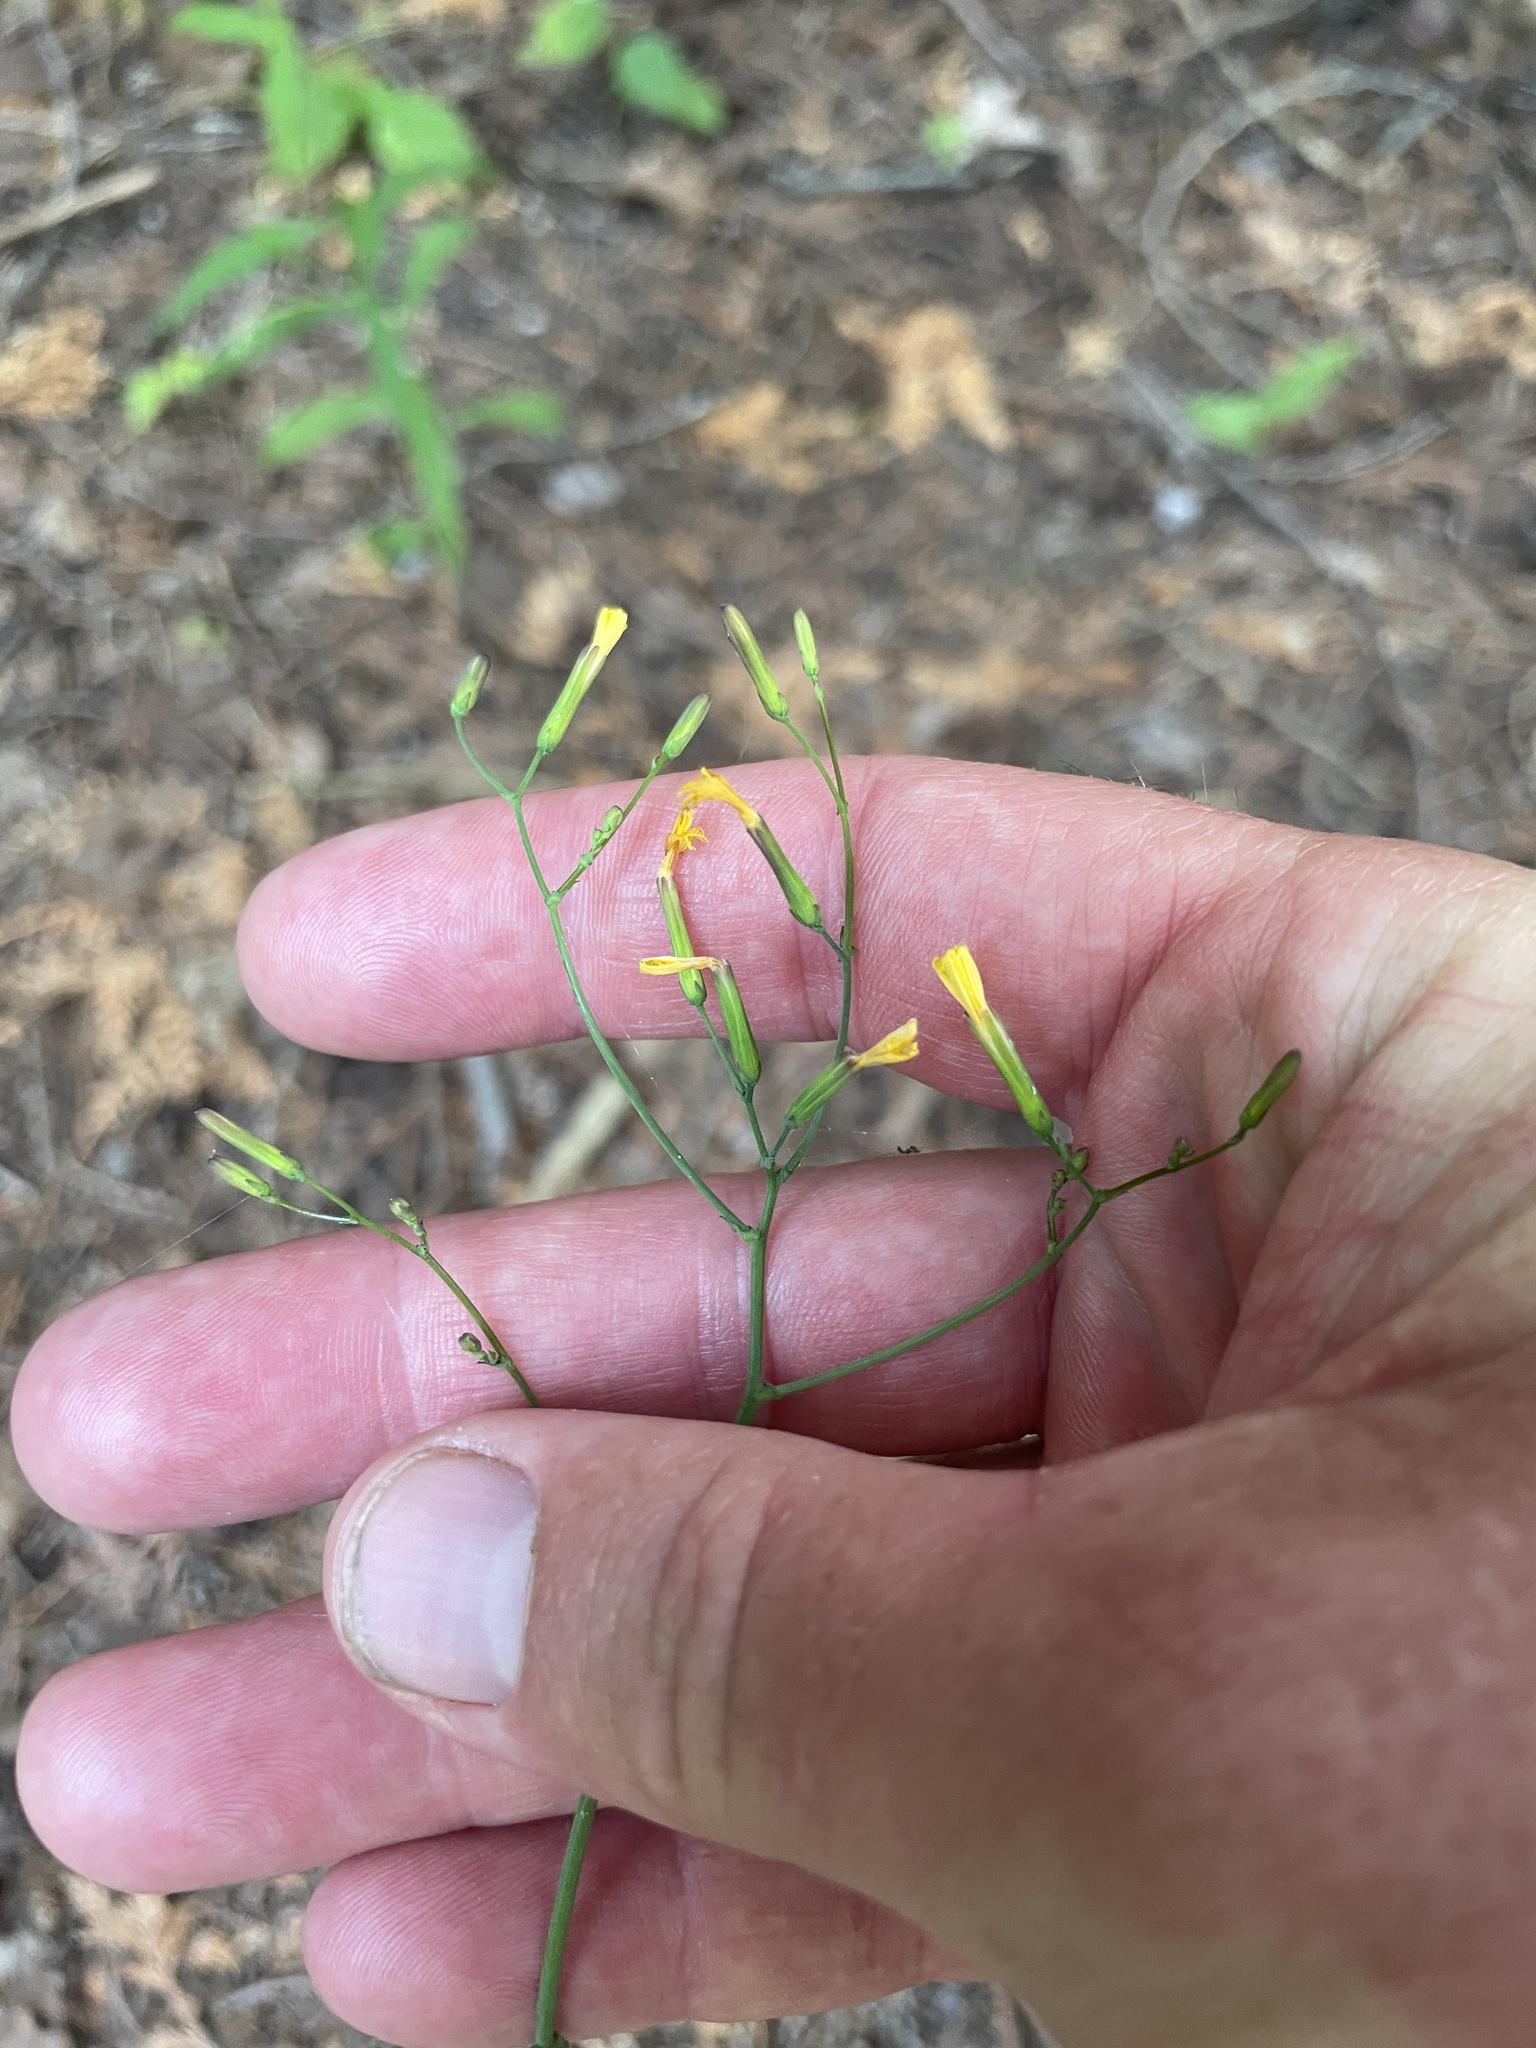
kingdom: Plantae
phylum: Tracheophyta
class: Magnoliopsida
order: Asterales
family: Asteraceae
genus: Mycelis
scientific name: Mycelis muralis
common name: Wall lettuce
